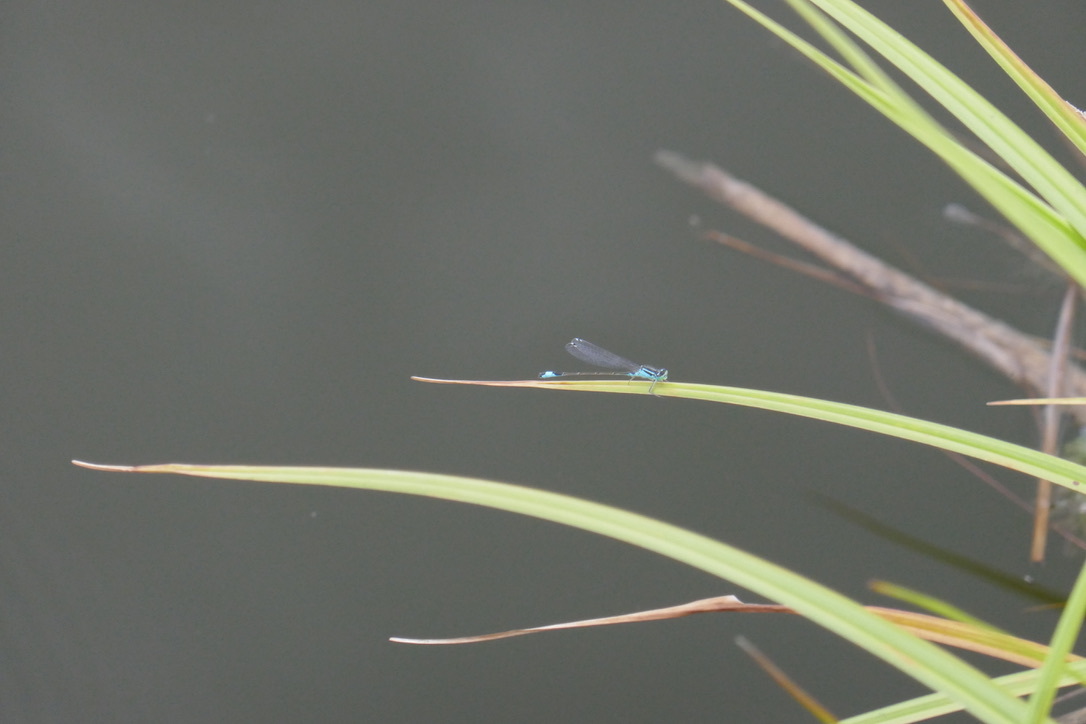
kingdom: Animalia
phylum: Arthropoda
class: Insecta
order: Odonata
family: Coenagrionidae
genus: Ischnura
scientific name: Ischnura elegans
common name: Blue-tailed damselfly
